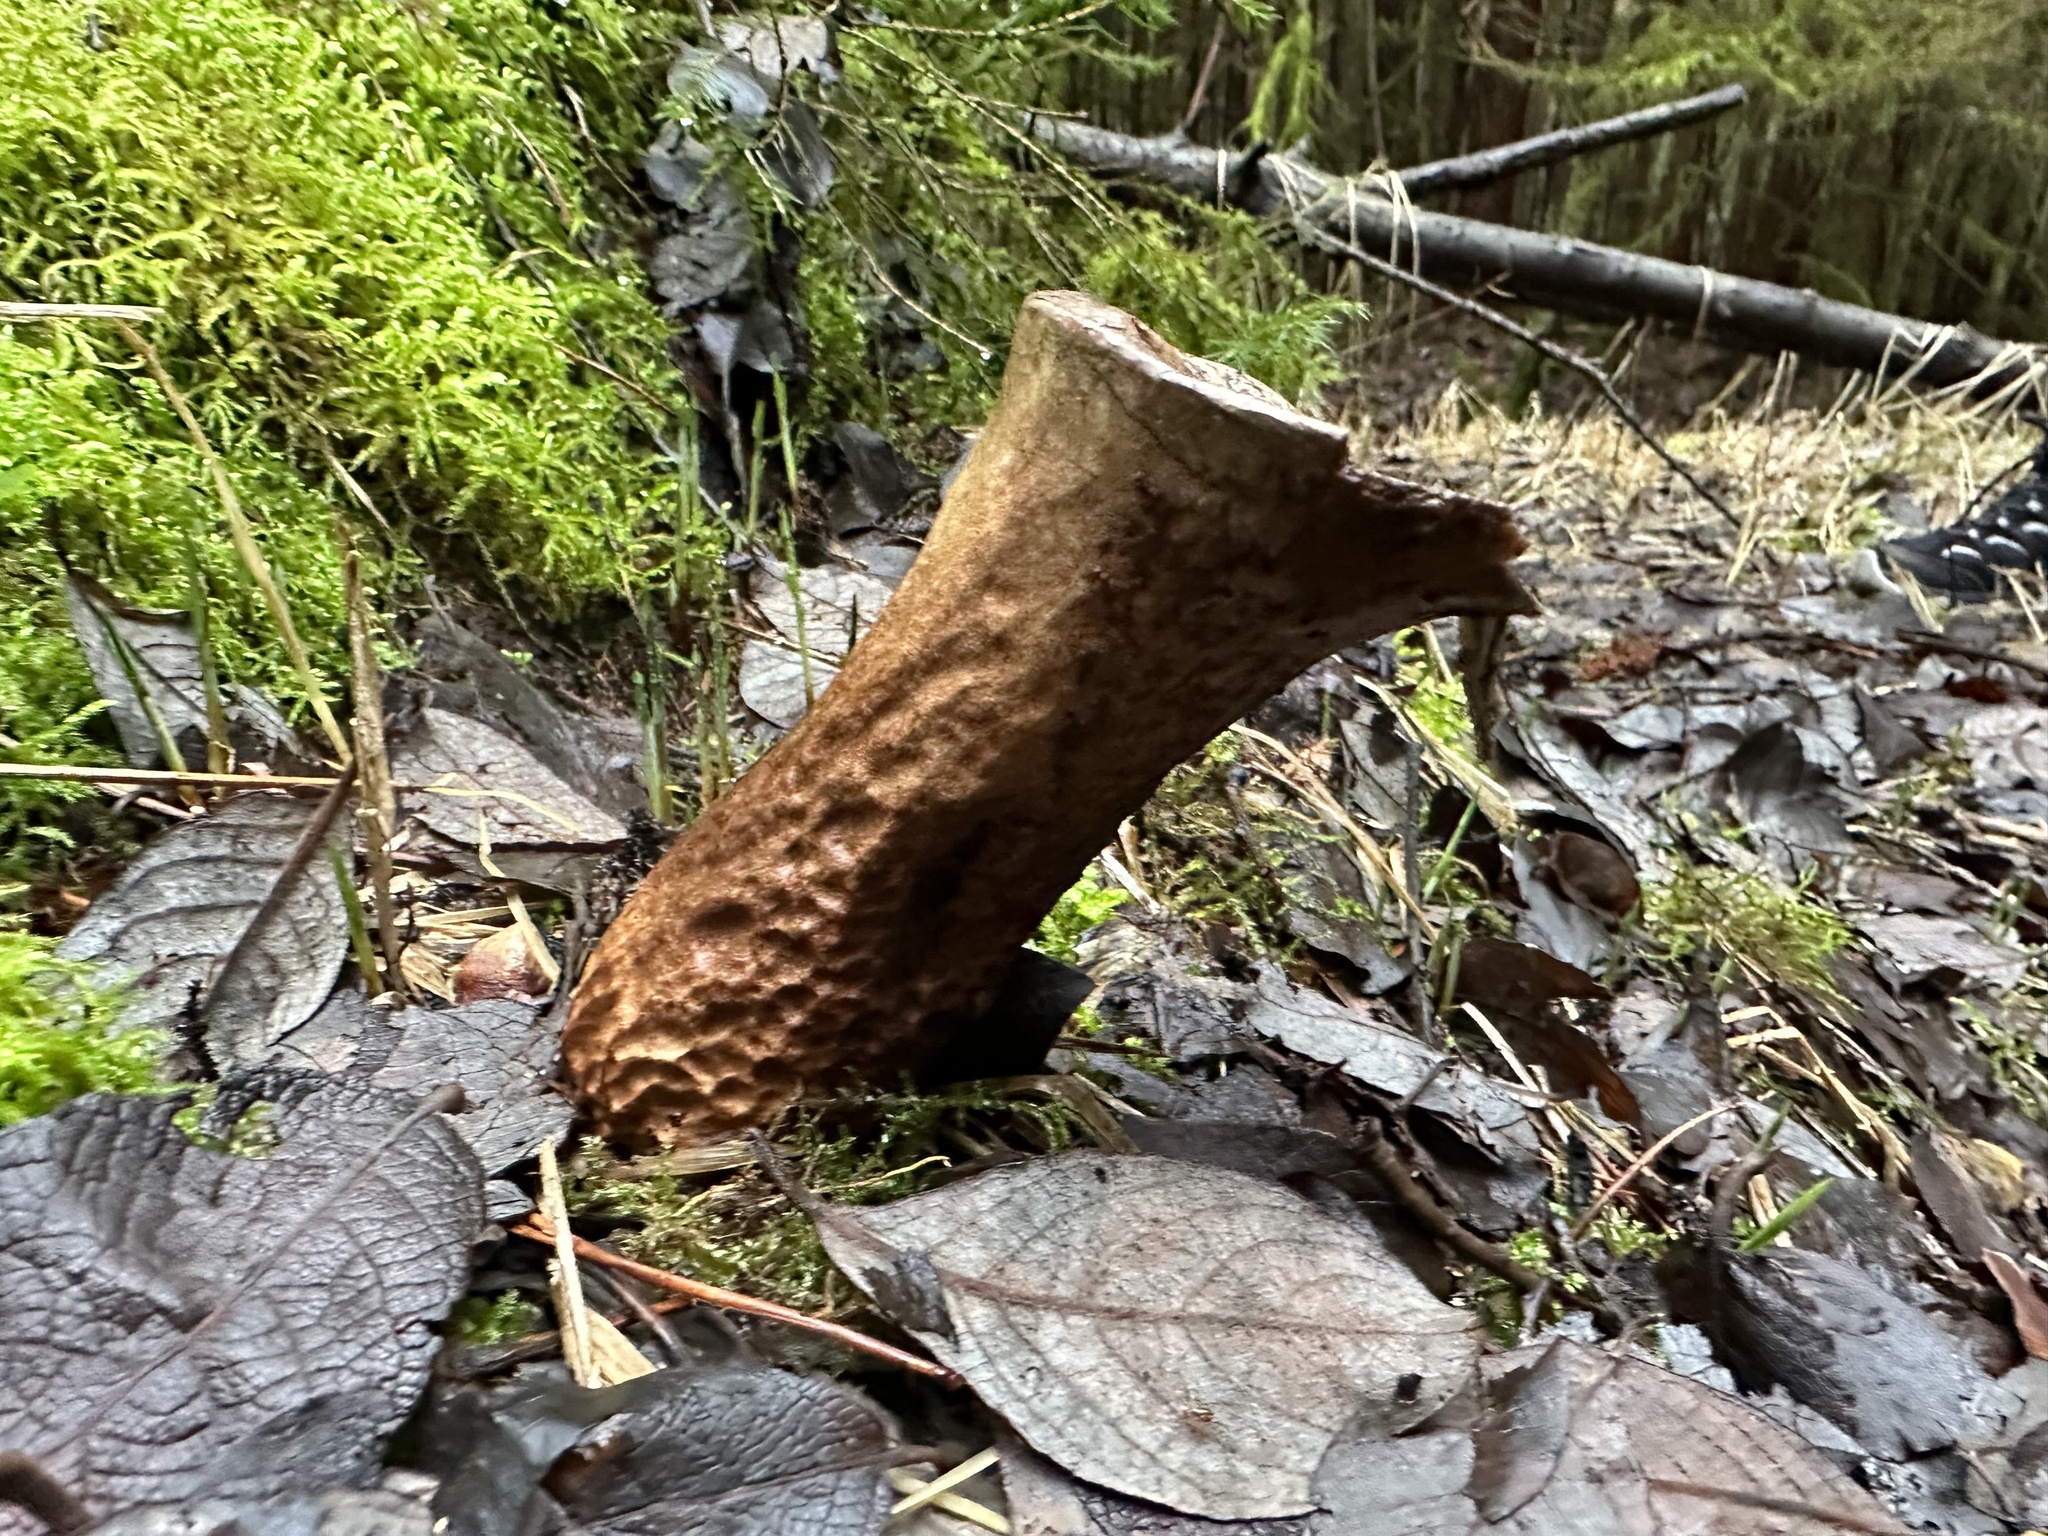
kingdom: Fungi
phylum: Basidiomycota
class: Agaricomycetes
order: Agaricales
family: Lycoperdaceae
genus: Lycoperdon
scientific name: Lycoperdon excipuliforme
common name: Pestle puffball
